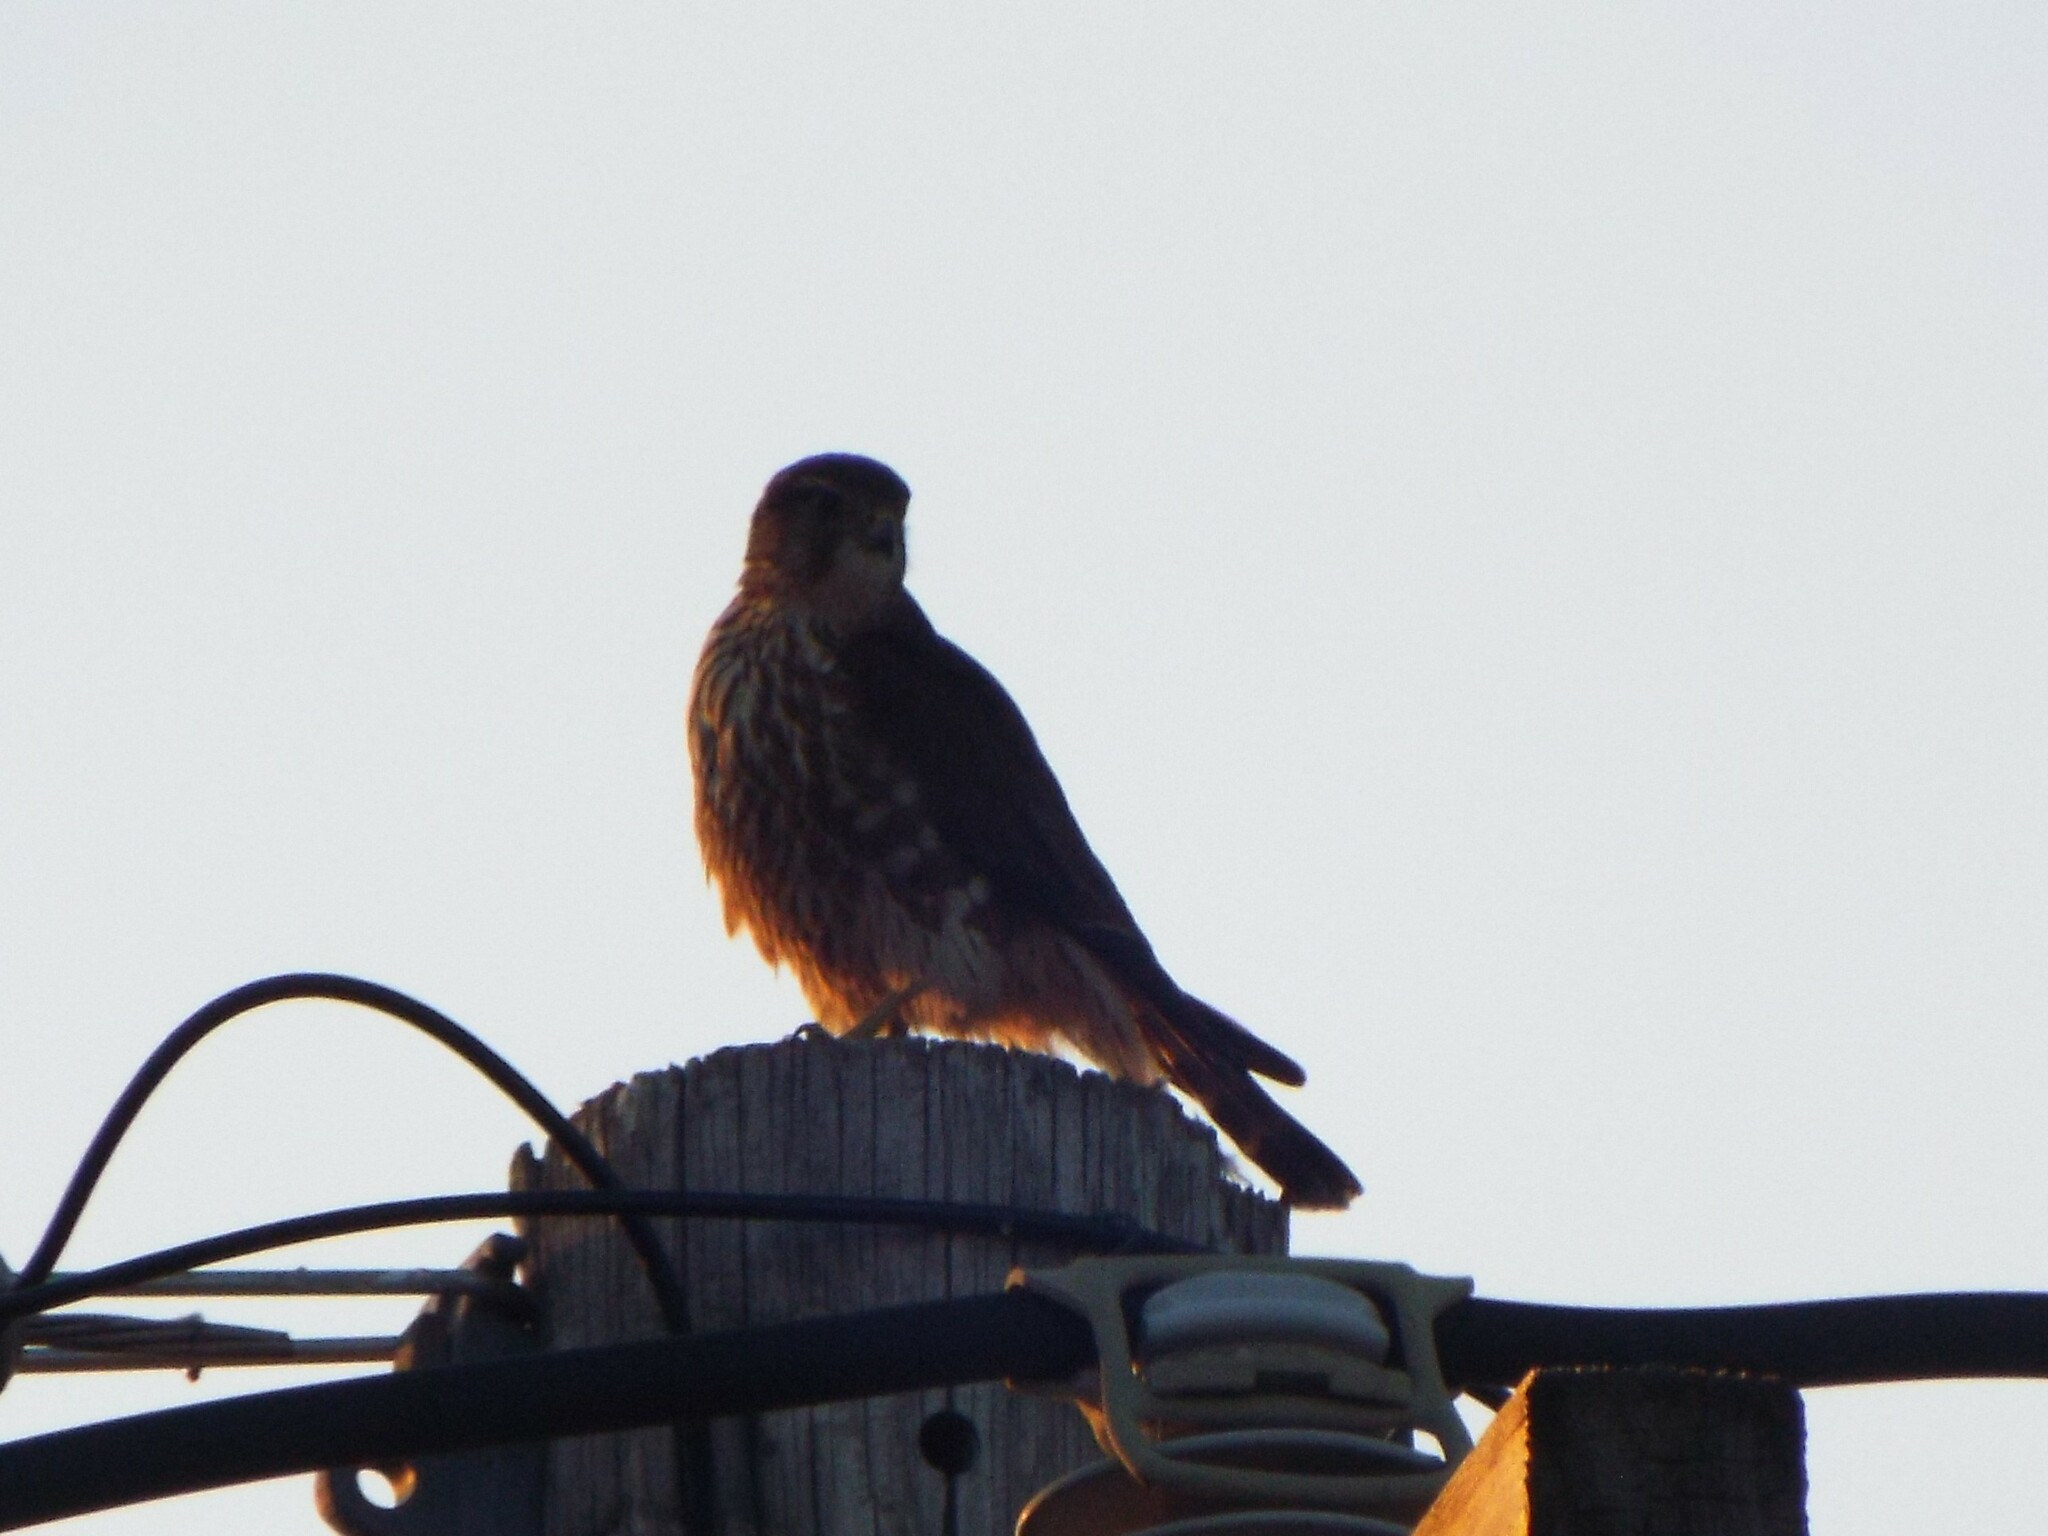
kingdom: Animalia
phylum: Chordata
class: Aves
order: Falconiformes
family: Falconidae
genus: Falco
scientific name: Falco columbarius
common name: Merlin
